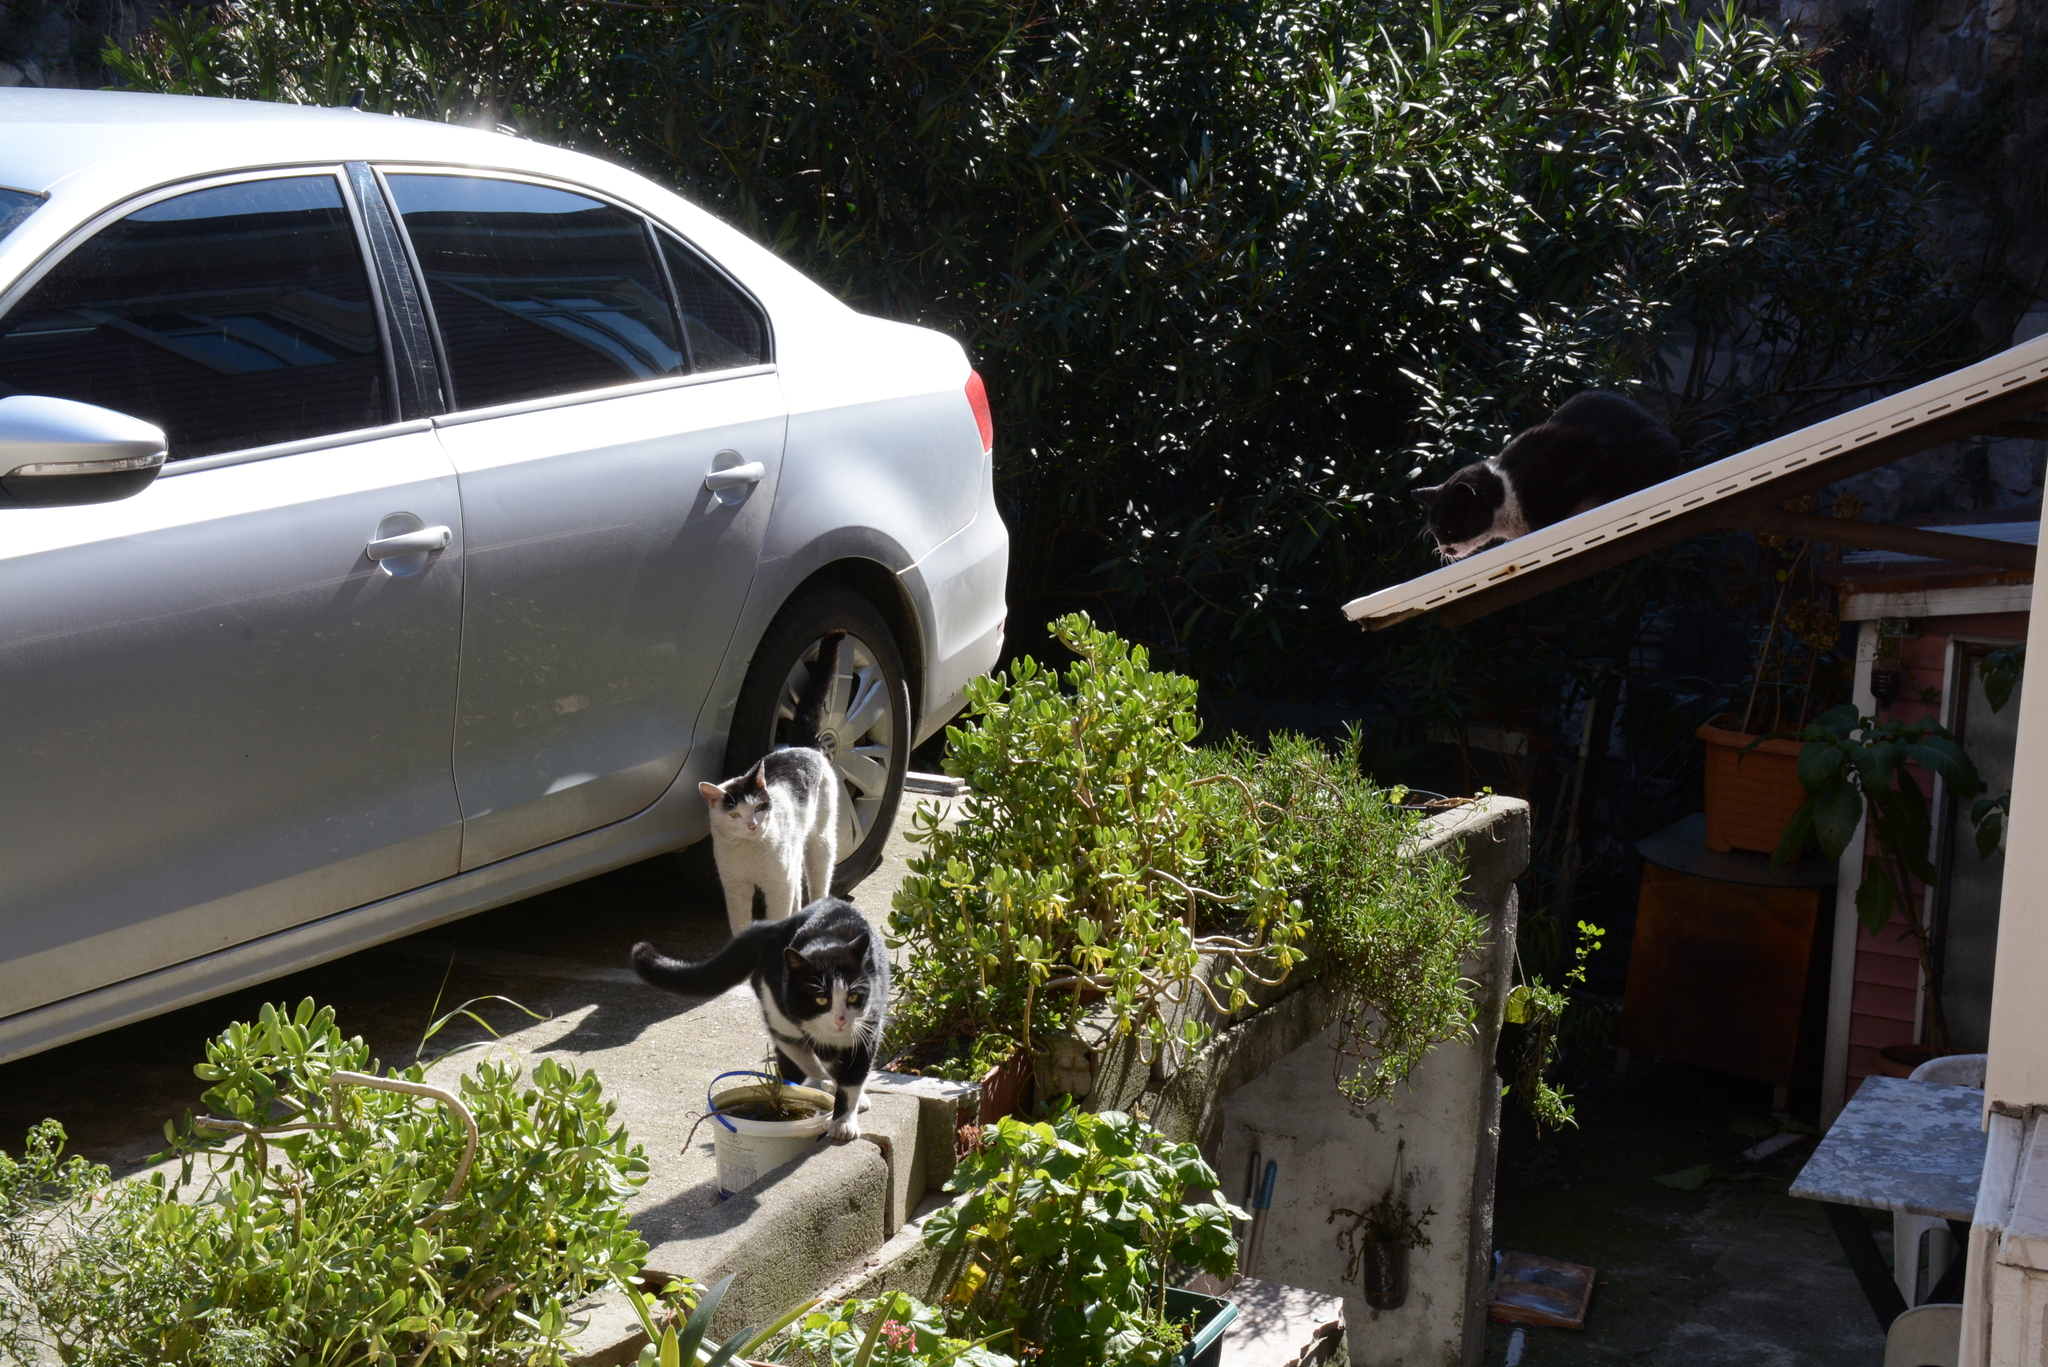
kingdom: Animalia
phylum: Chordata
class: Mammalia
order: Carnivora
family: Felidae
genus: Felis
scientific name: Felis catus
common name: Domestic cat
